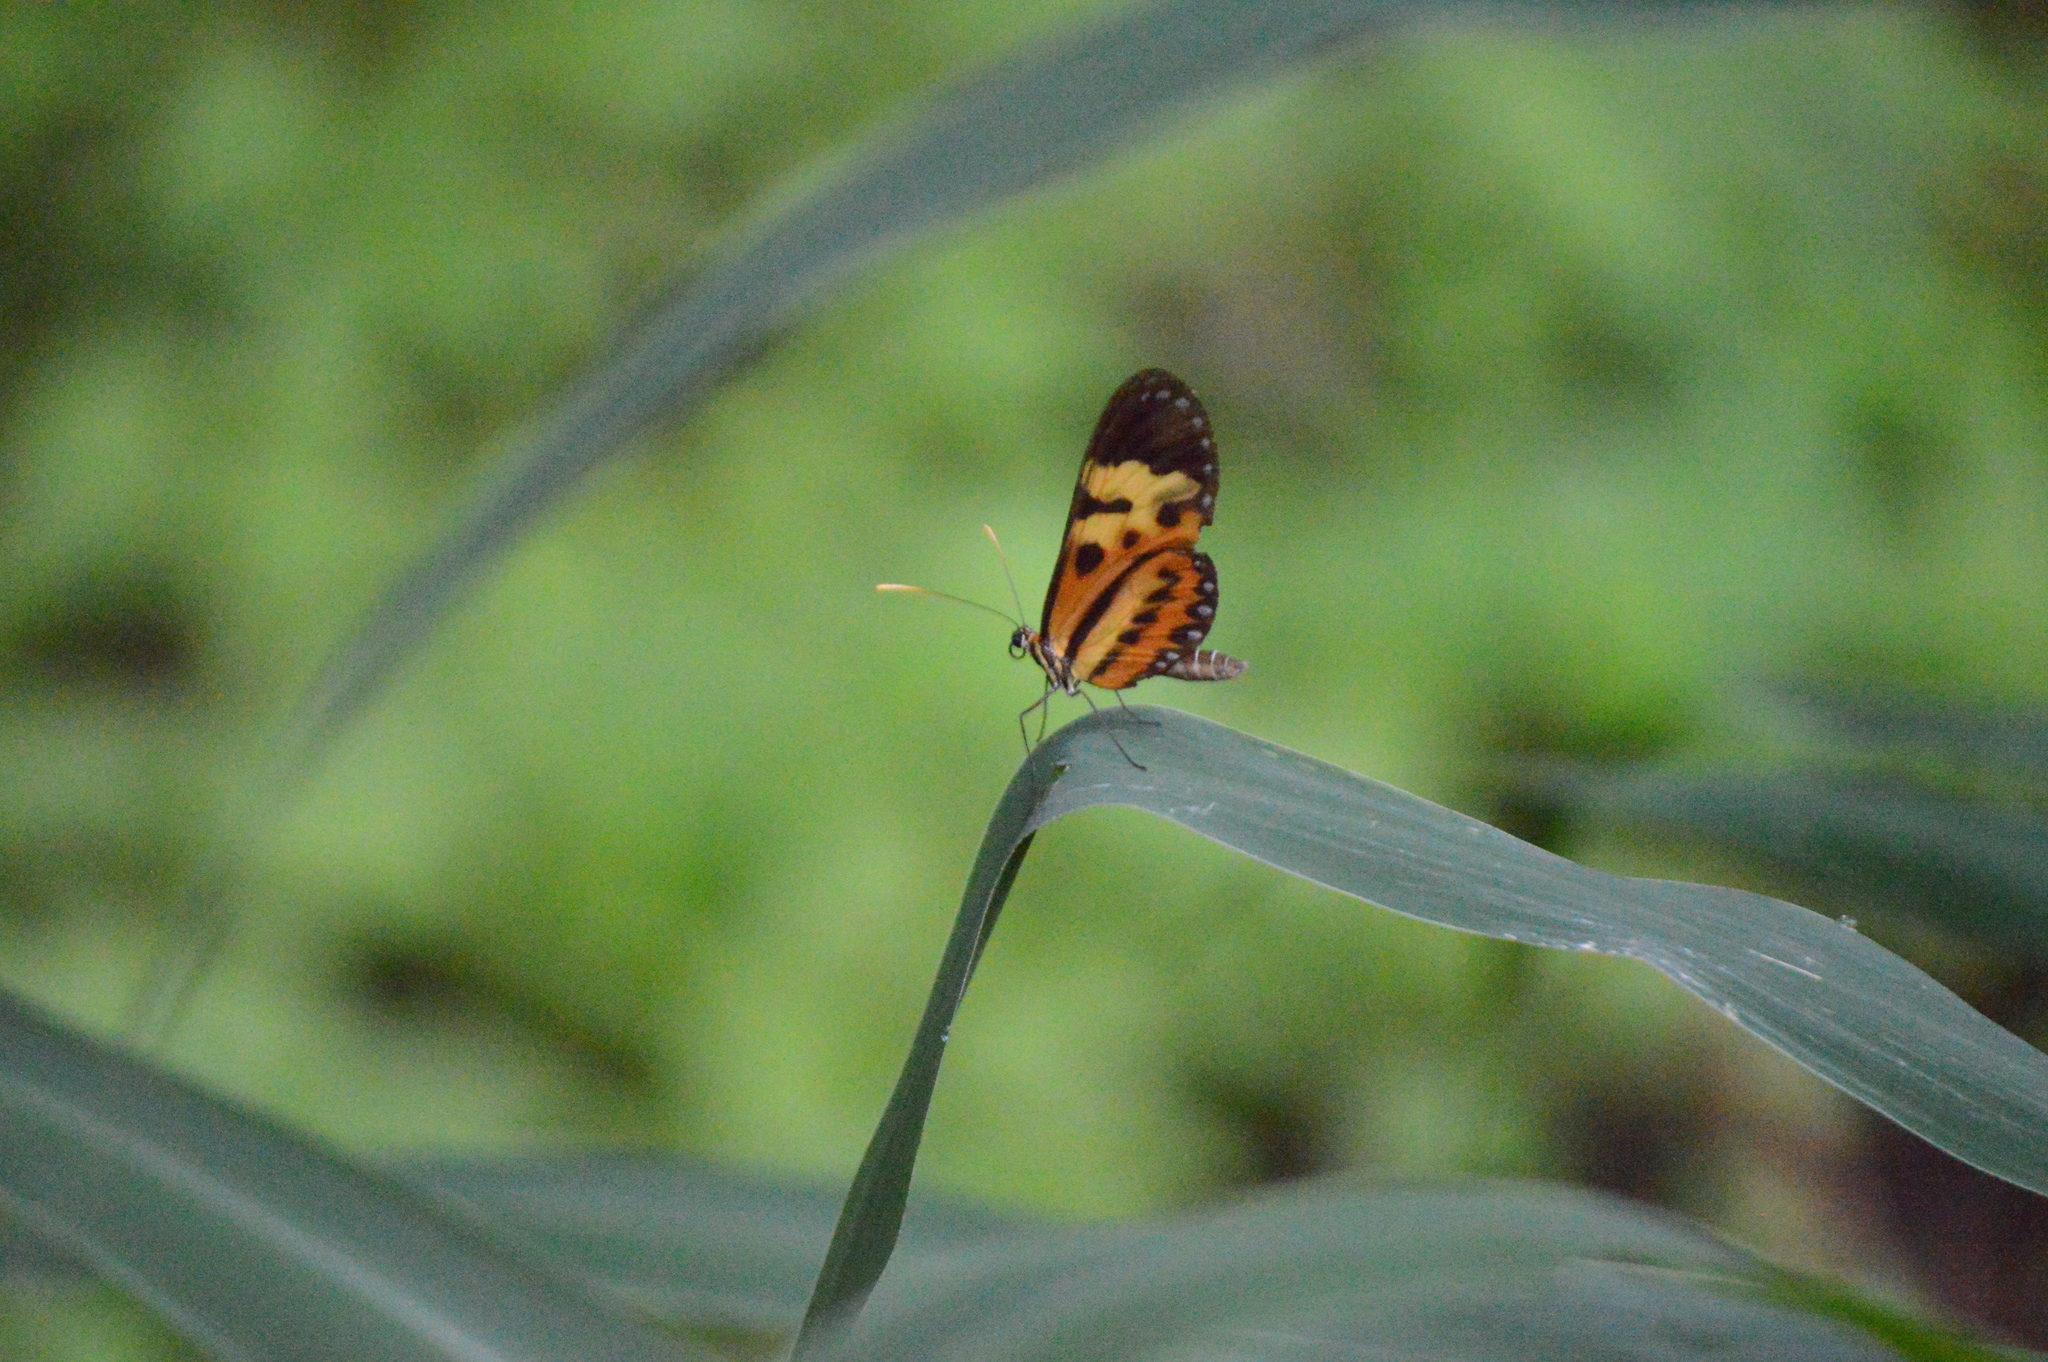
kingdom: Animalia
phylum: Arthropoda
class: Insecta
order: Lepidoptera
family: Nymphalidae
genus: Mechanitis
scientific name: Mechanitis polymnia
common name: Disturbed tigerwing
